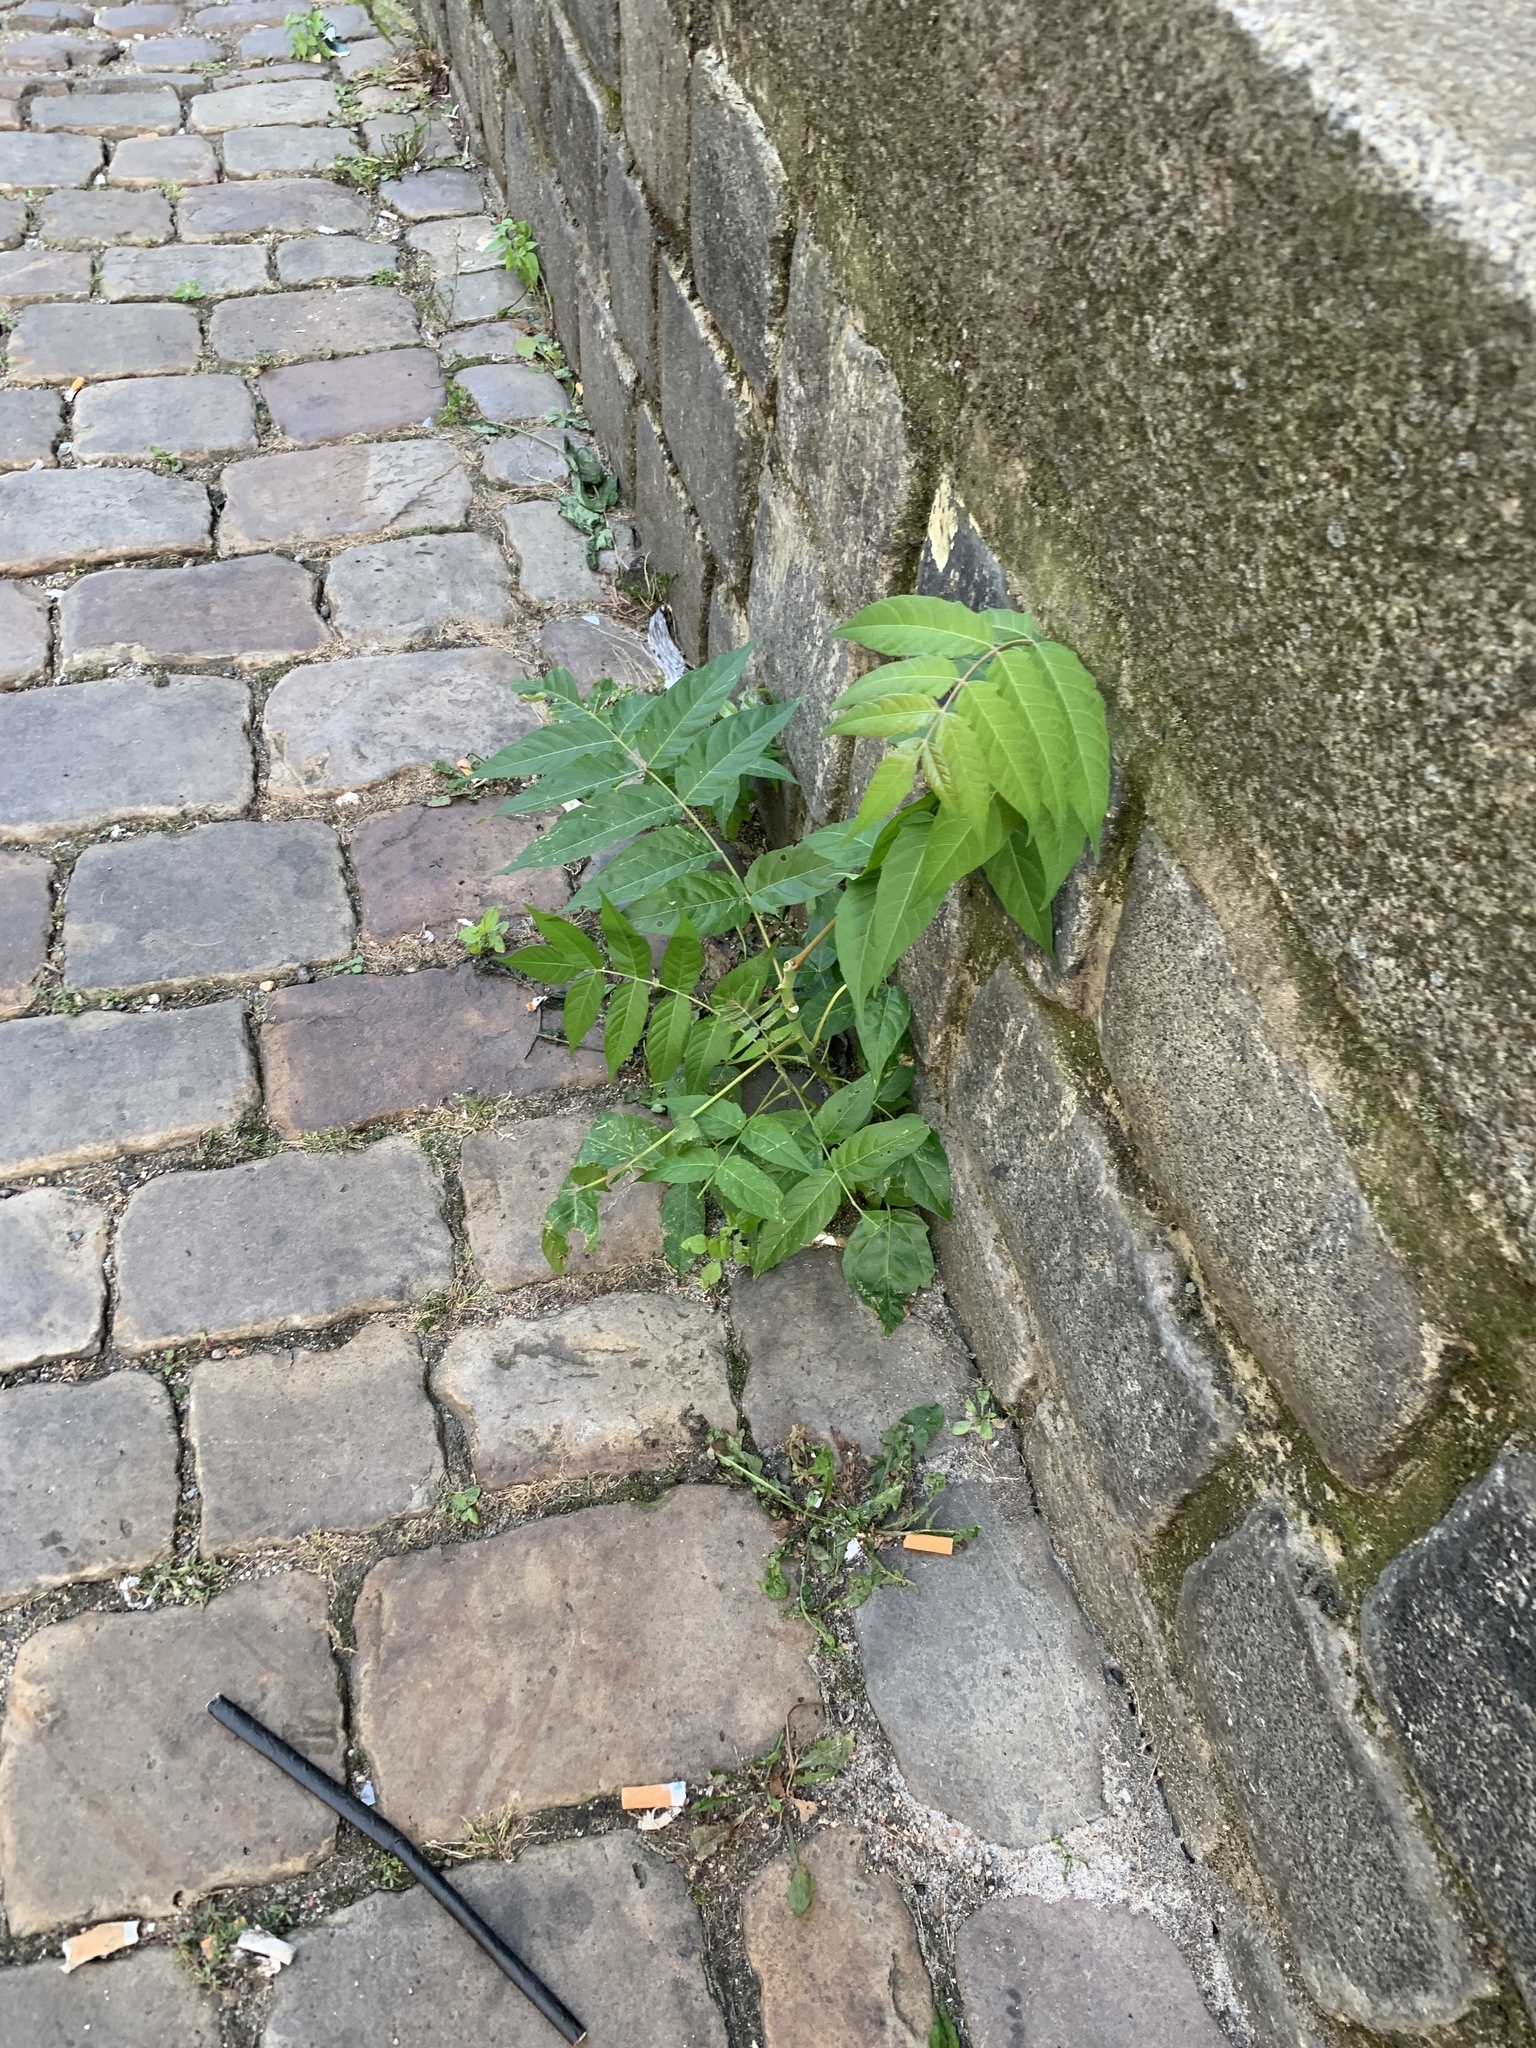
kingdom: Plantae
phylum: Tracheophyta
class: Magnoliopsida
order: Sapindales
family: Simaroubaceae
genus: Ailanthus
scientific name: Ailanthus altissima
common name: Tree-of-heaven
